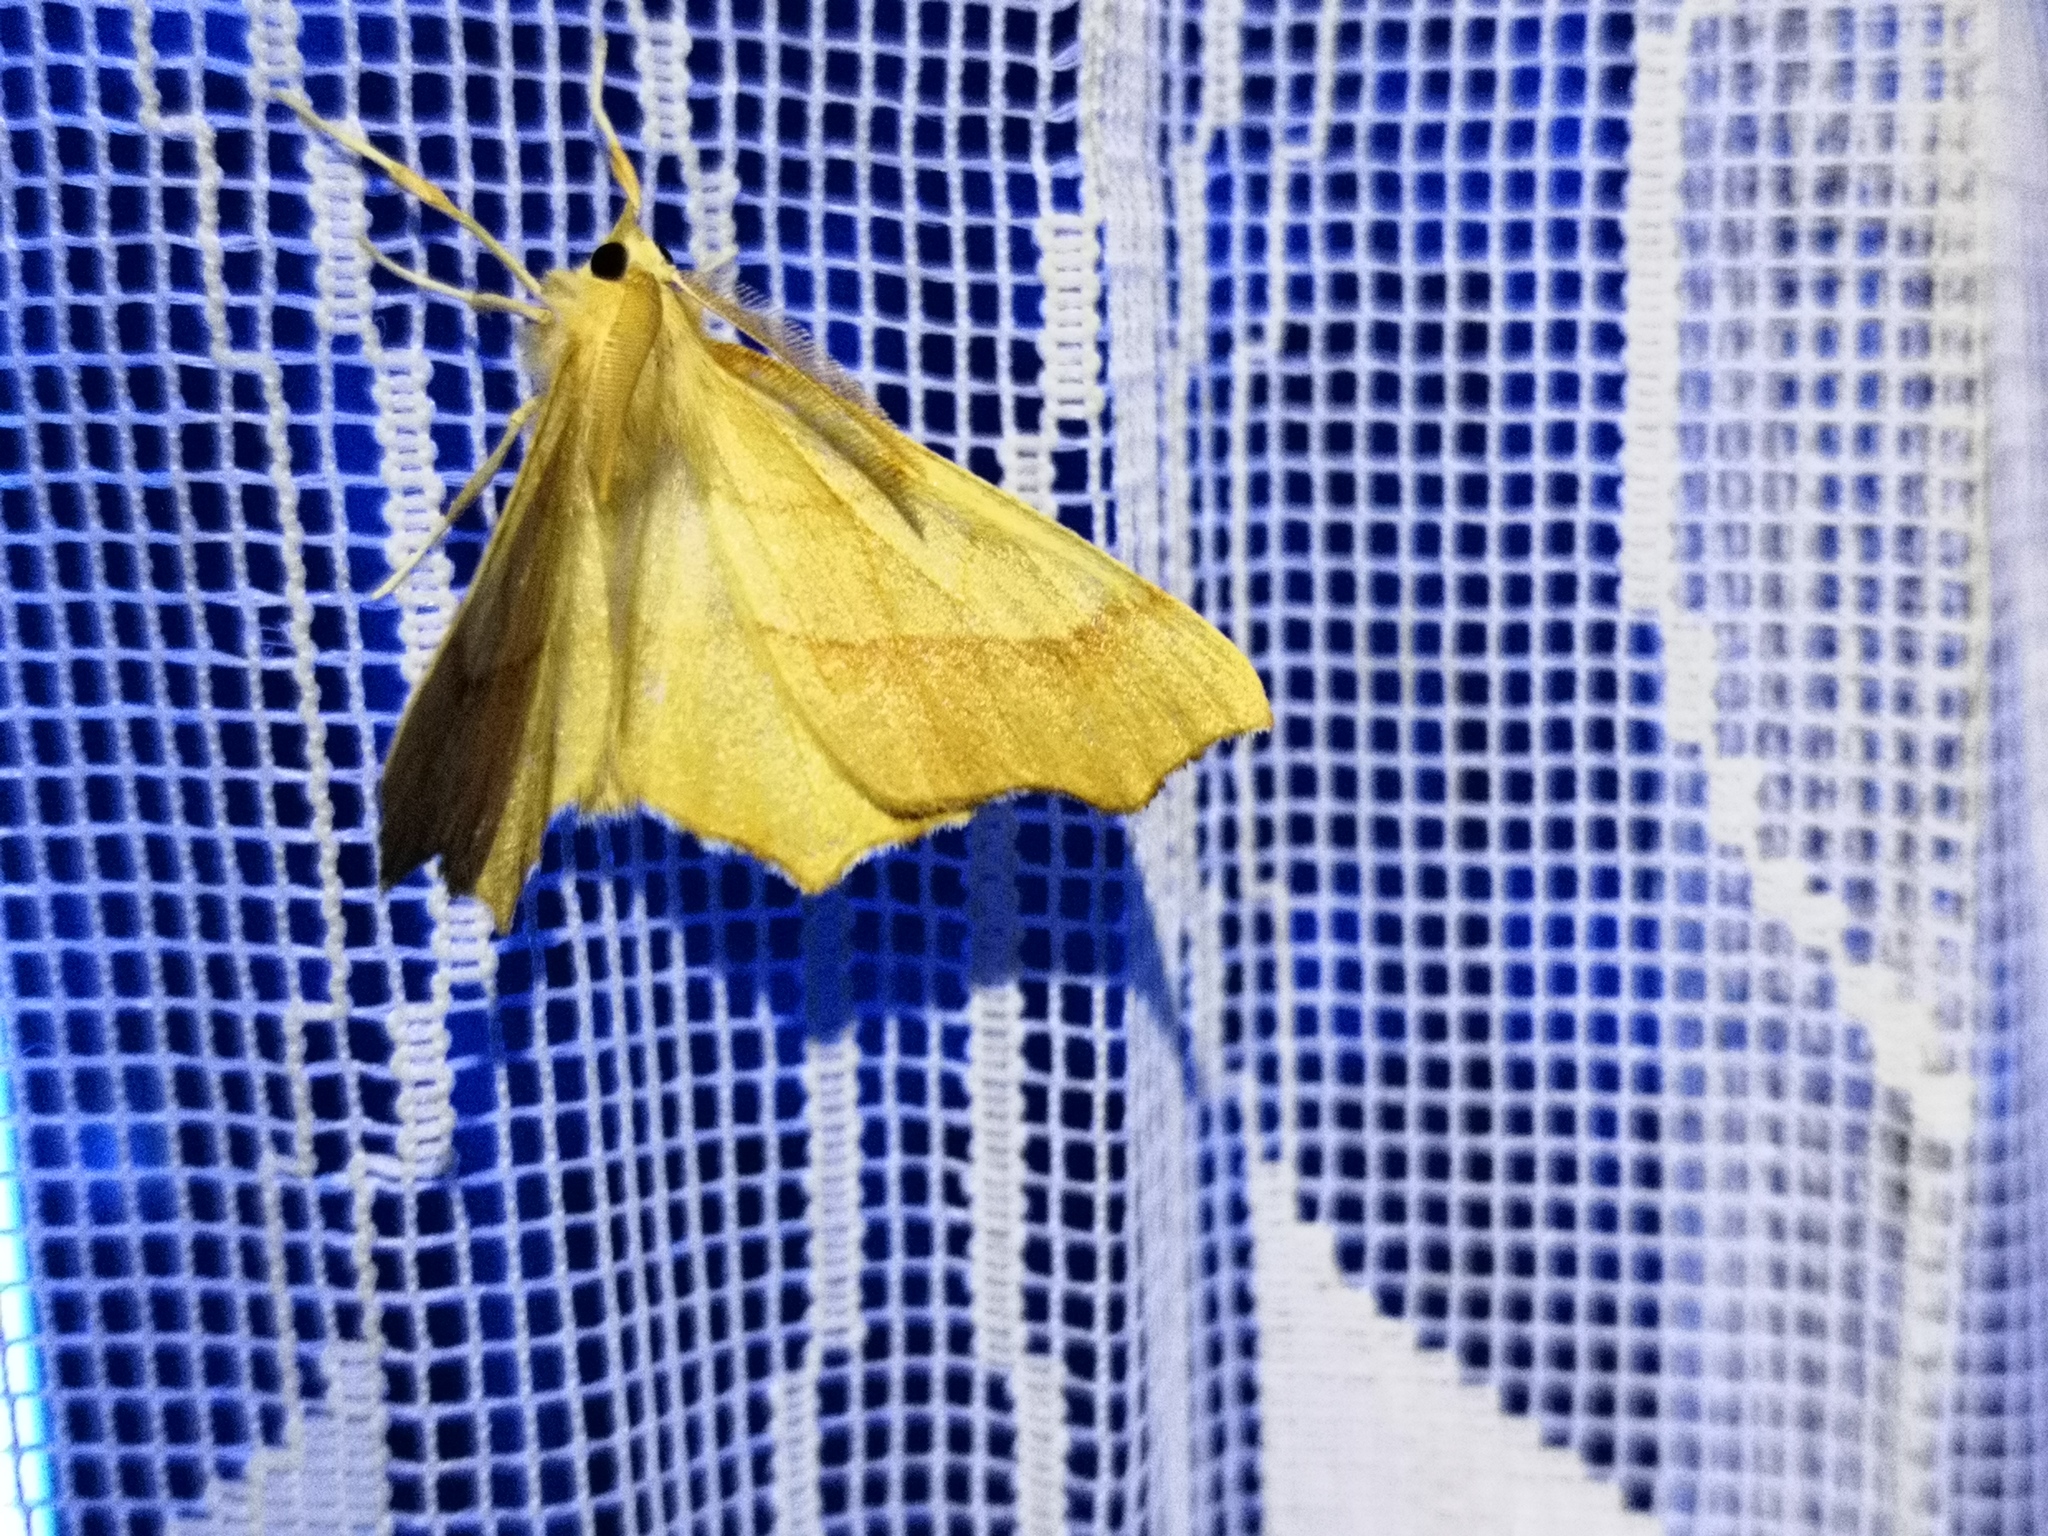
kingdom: Animalia
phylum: Arthropoda
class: Insecta
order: Lepidoptera
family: Geometridae
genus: Ennomos
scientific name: Ennomos quercinaria
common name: August thorn
